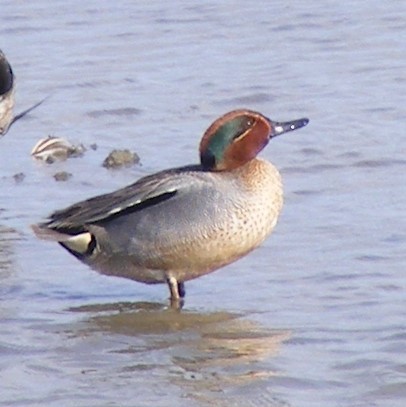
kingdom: Animalia
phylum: Chordata
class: Aves
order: Anseriformes
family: Anatidae
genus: Anas
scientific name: Anas crecca
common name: Eurasian teal
